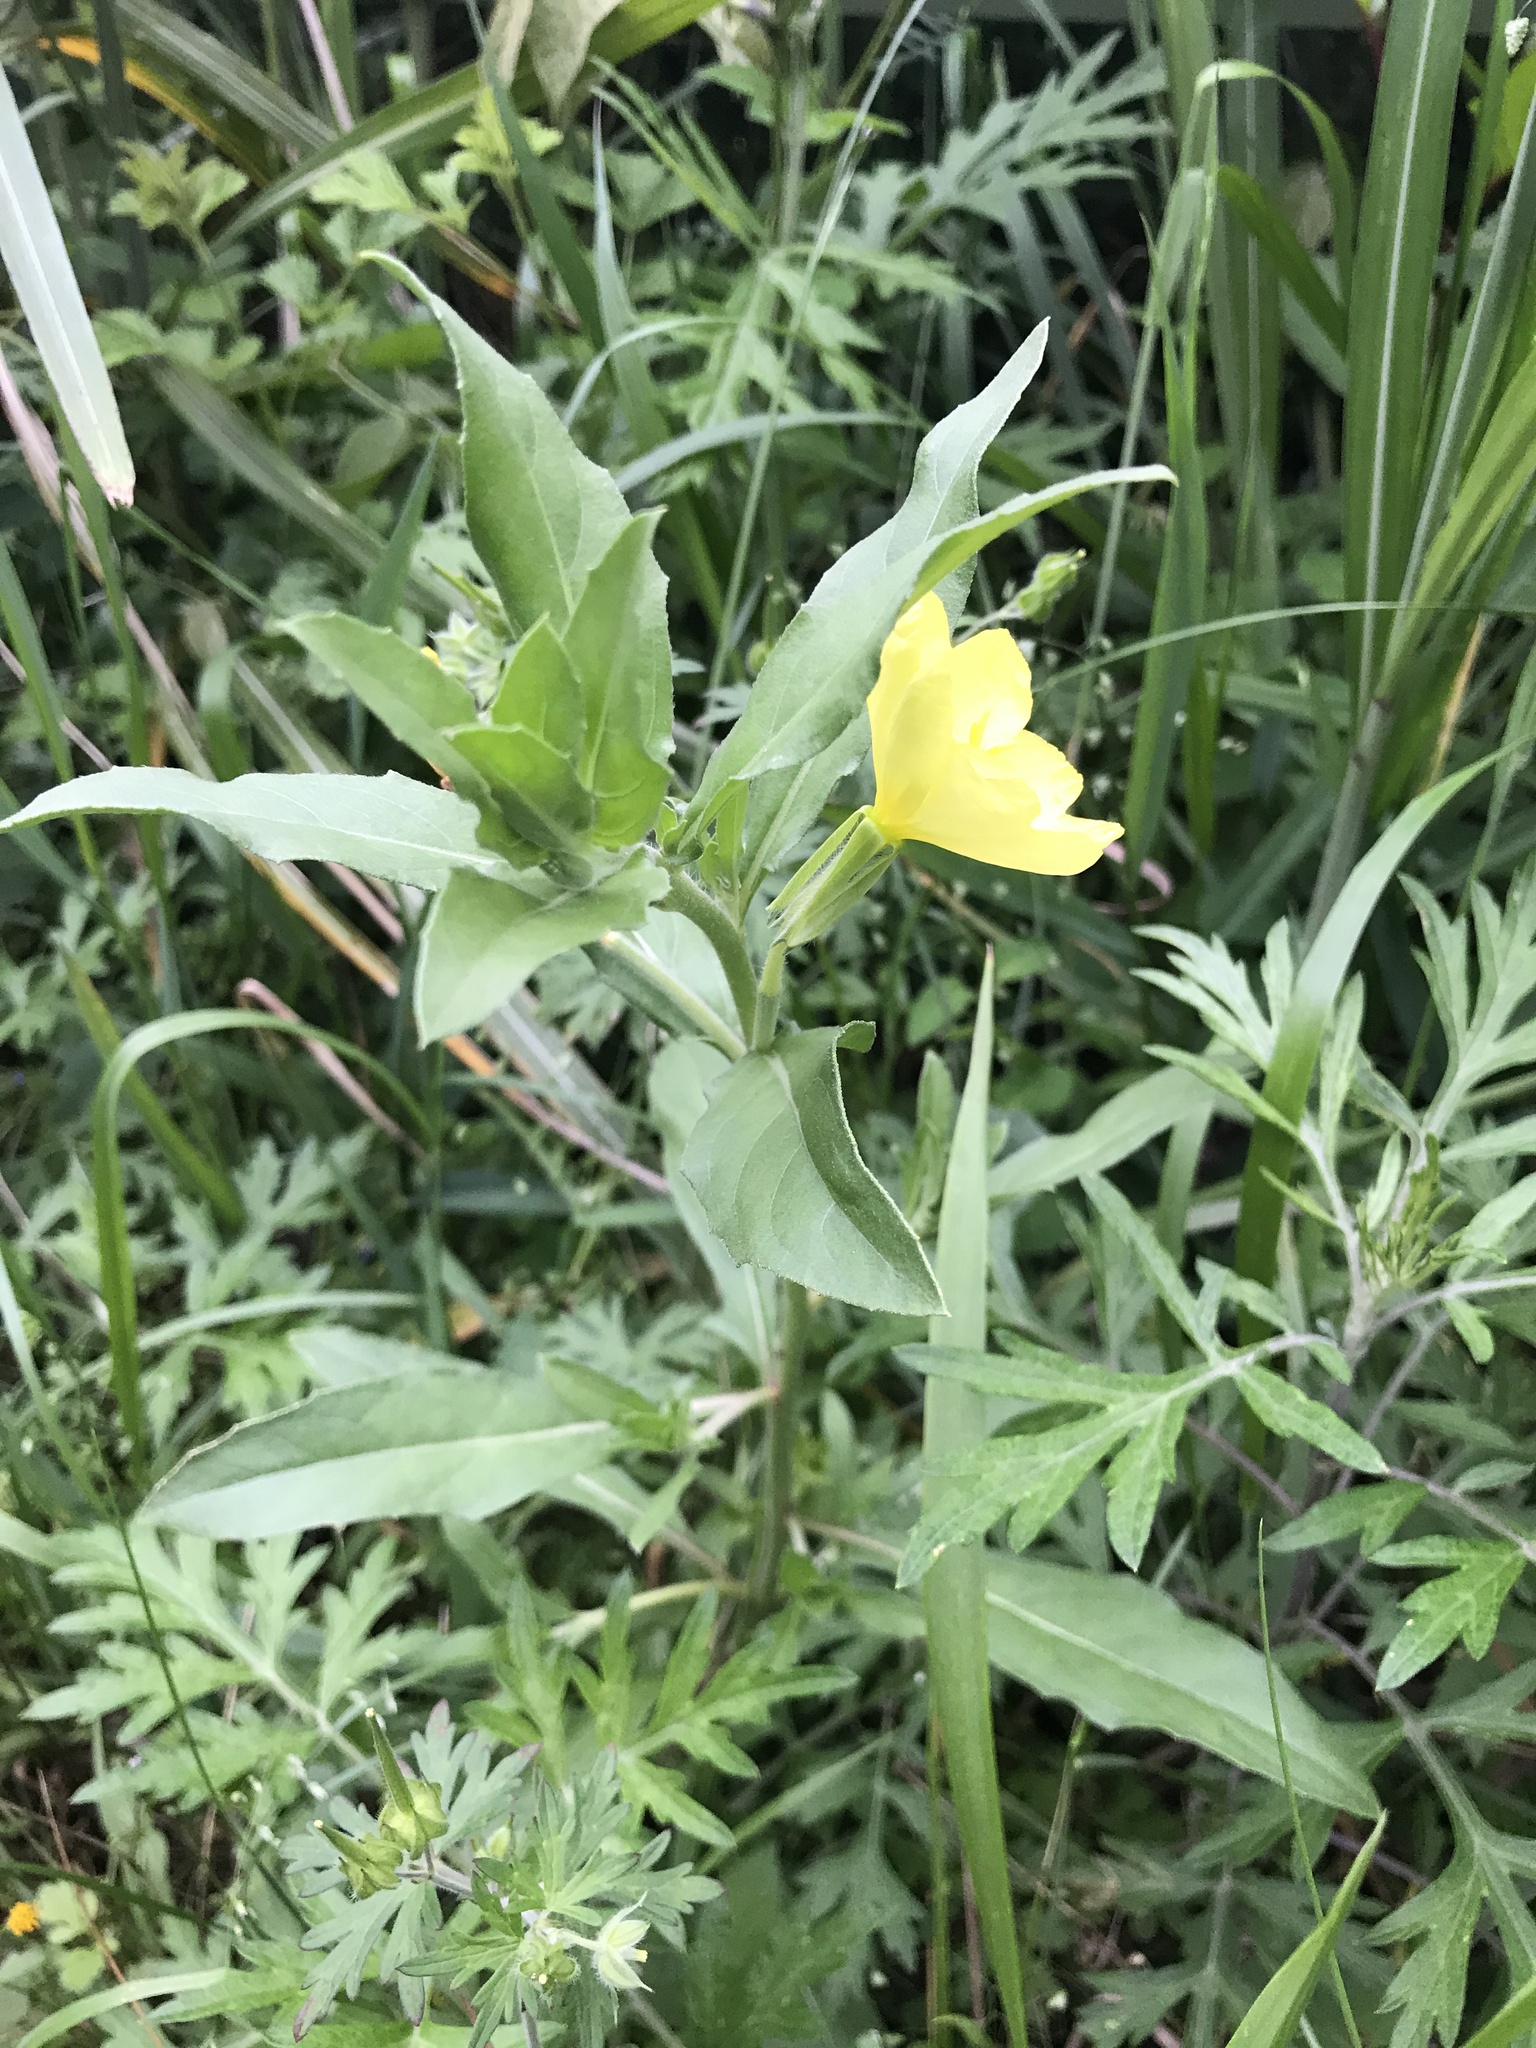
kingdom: Plantae
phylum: Tracheophyta
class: Magnoliopsida
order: Myrtales
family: Onagraceae
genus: Oenothera
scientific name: Oenothera biennis
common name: Common evening-primrose
